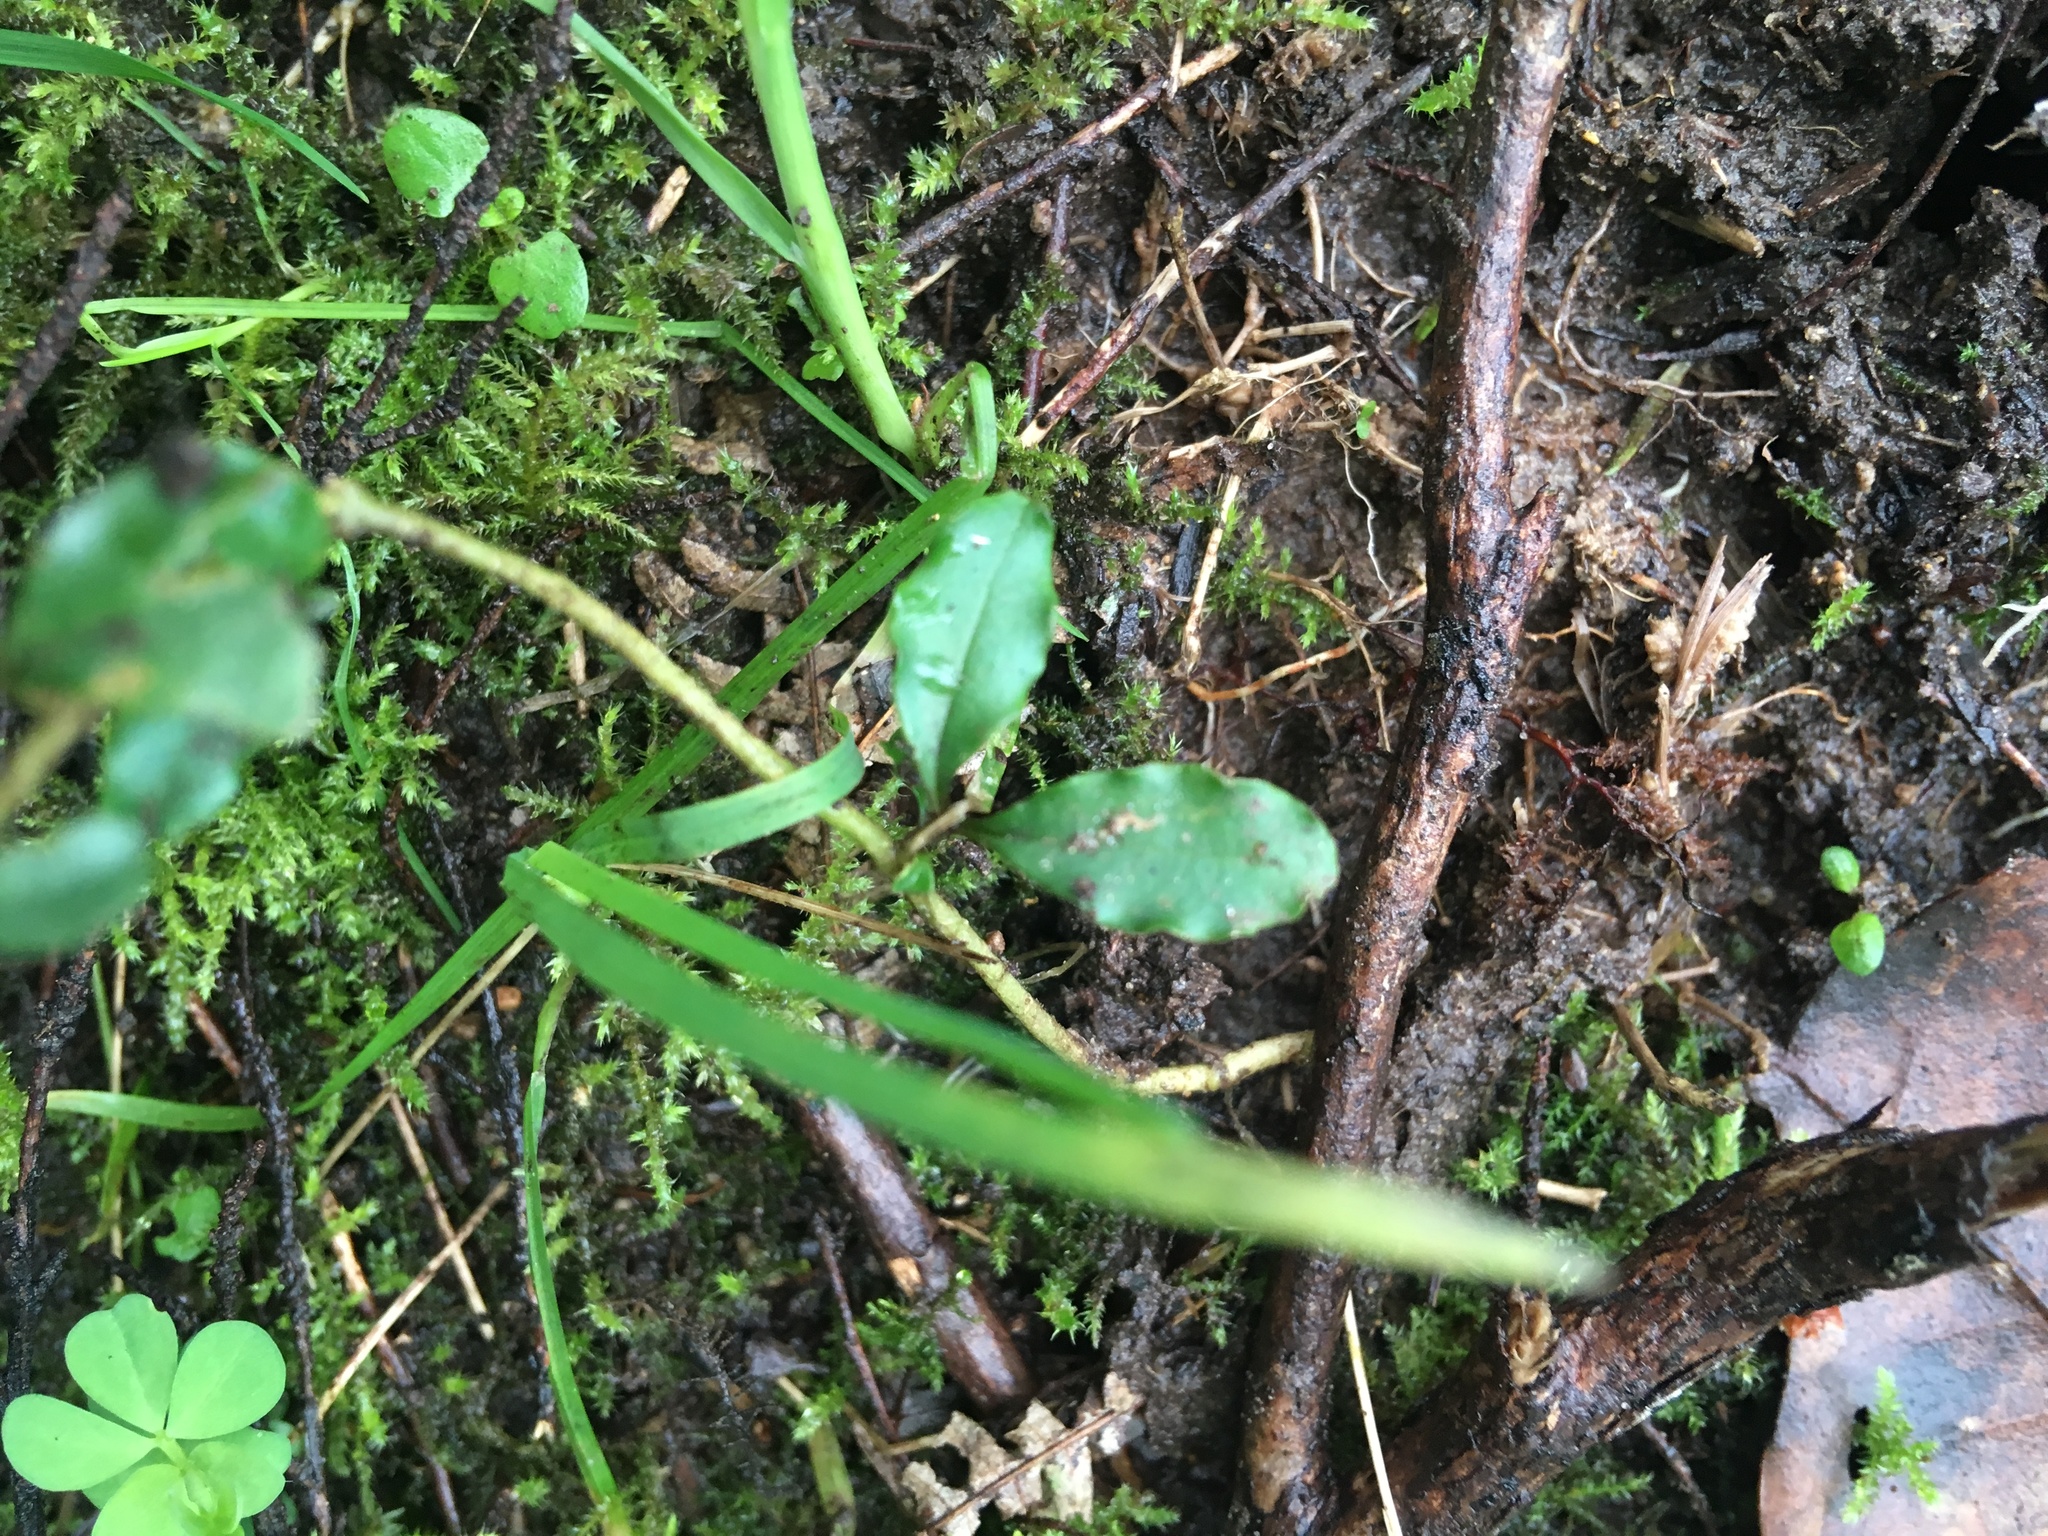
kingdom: Plantae
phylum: Tracheophyta
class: Magnoliopsida
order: Lamiales
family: Oleaceae
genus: Ligustrum
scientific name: Ligustrum sinense
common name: Chinese privet
